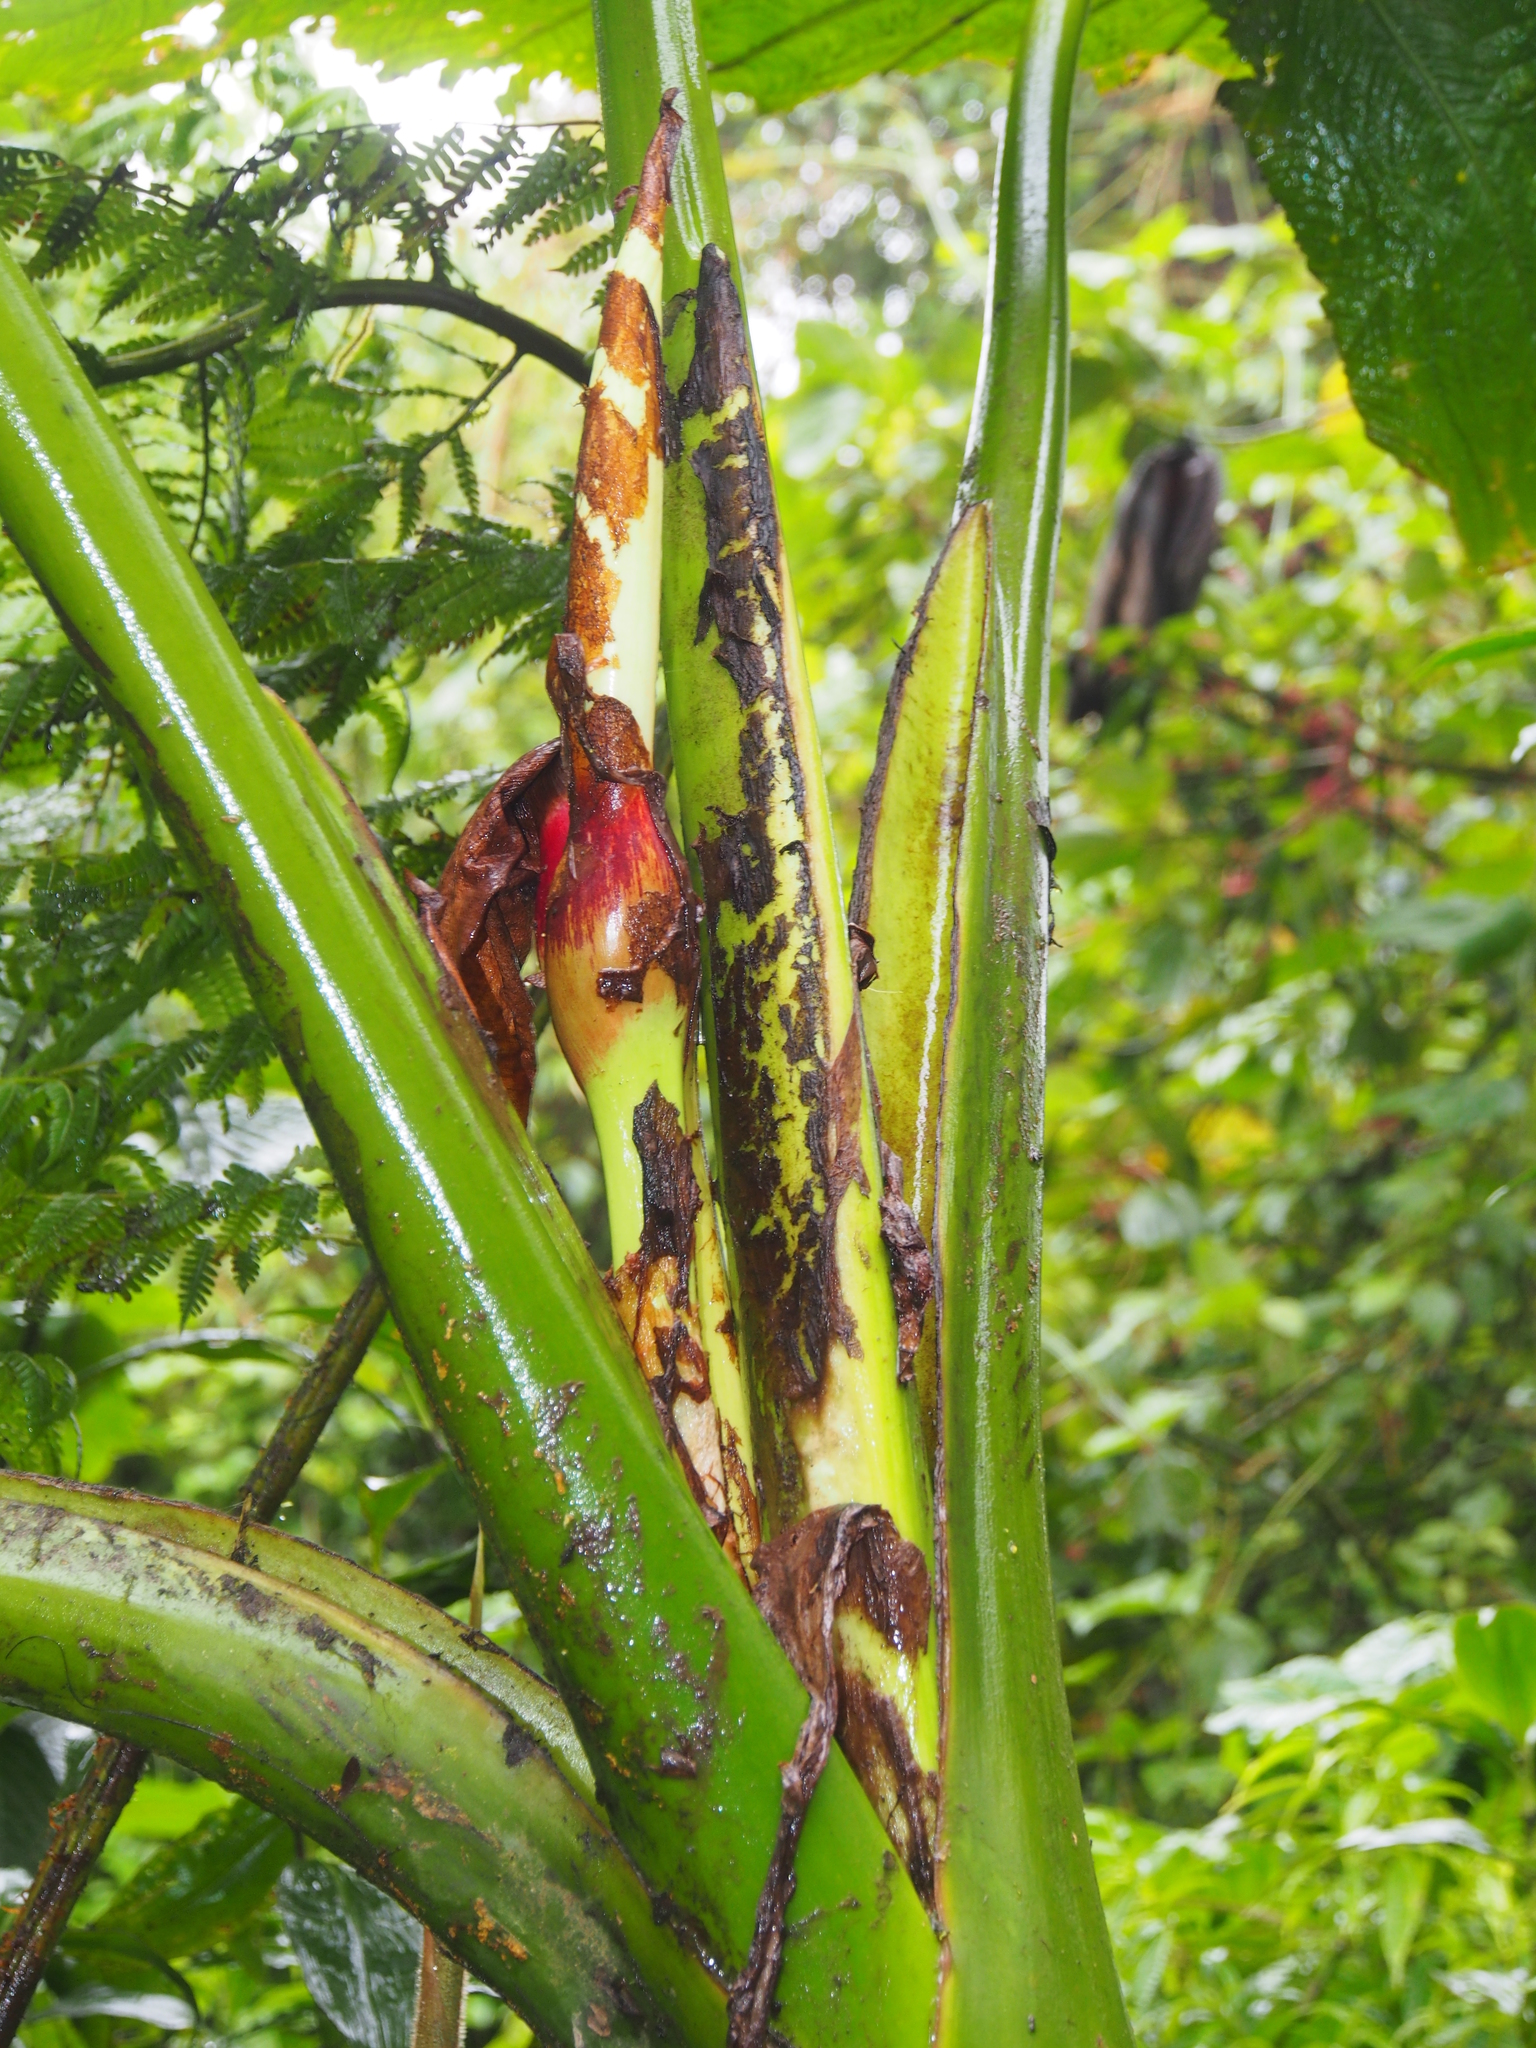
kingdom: Plantae
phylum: Tracheophyta
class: Liliopsida
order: Alismatales
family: Araceae
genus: Xanthosoma
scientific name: Xanthosoma undipes
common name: Tall elephant's ear
